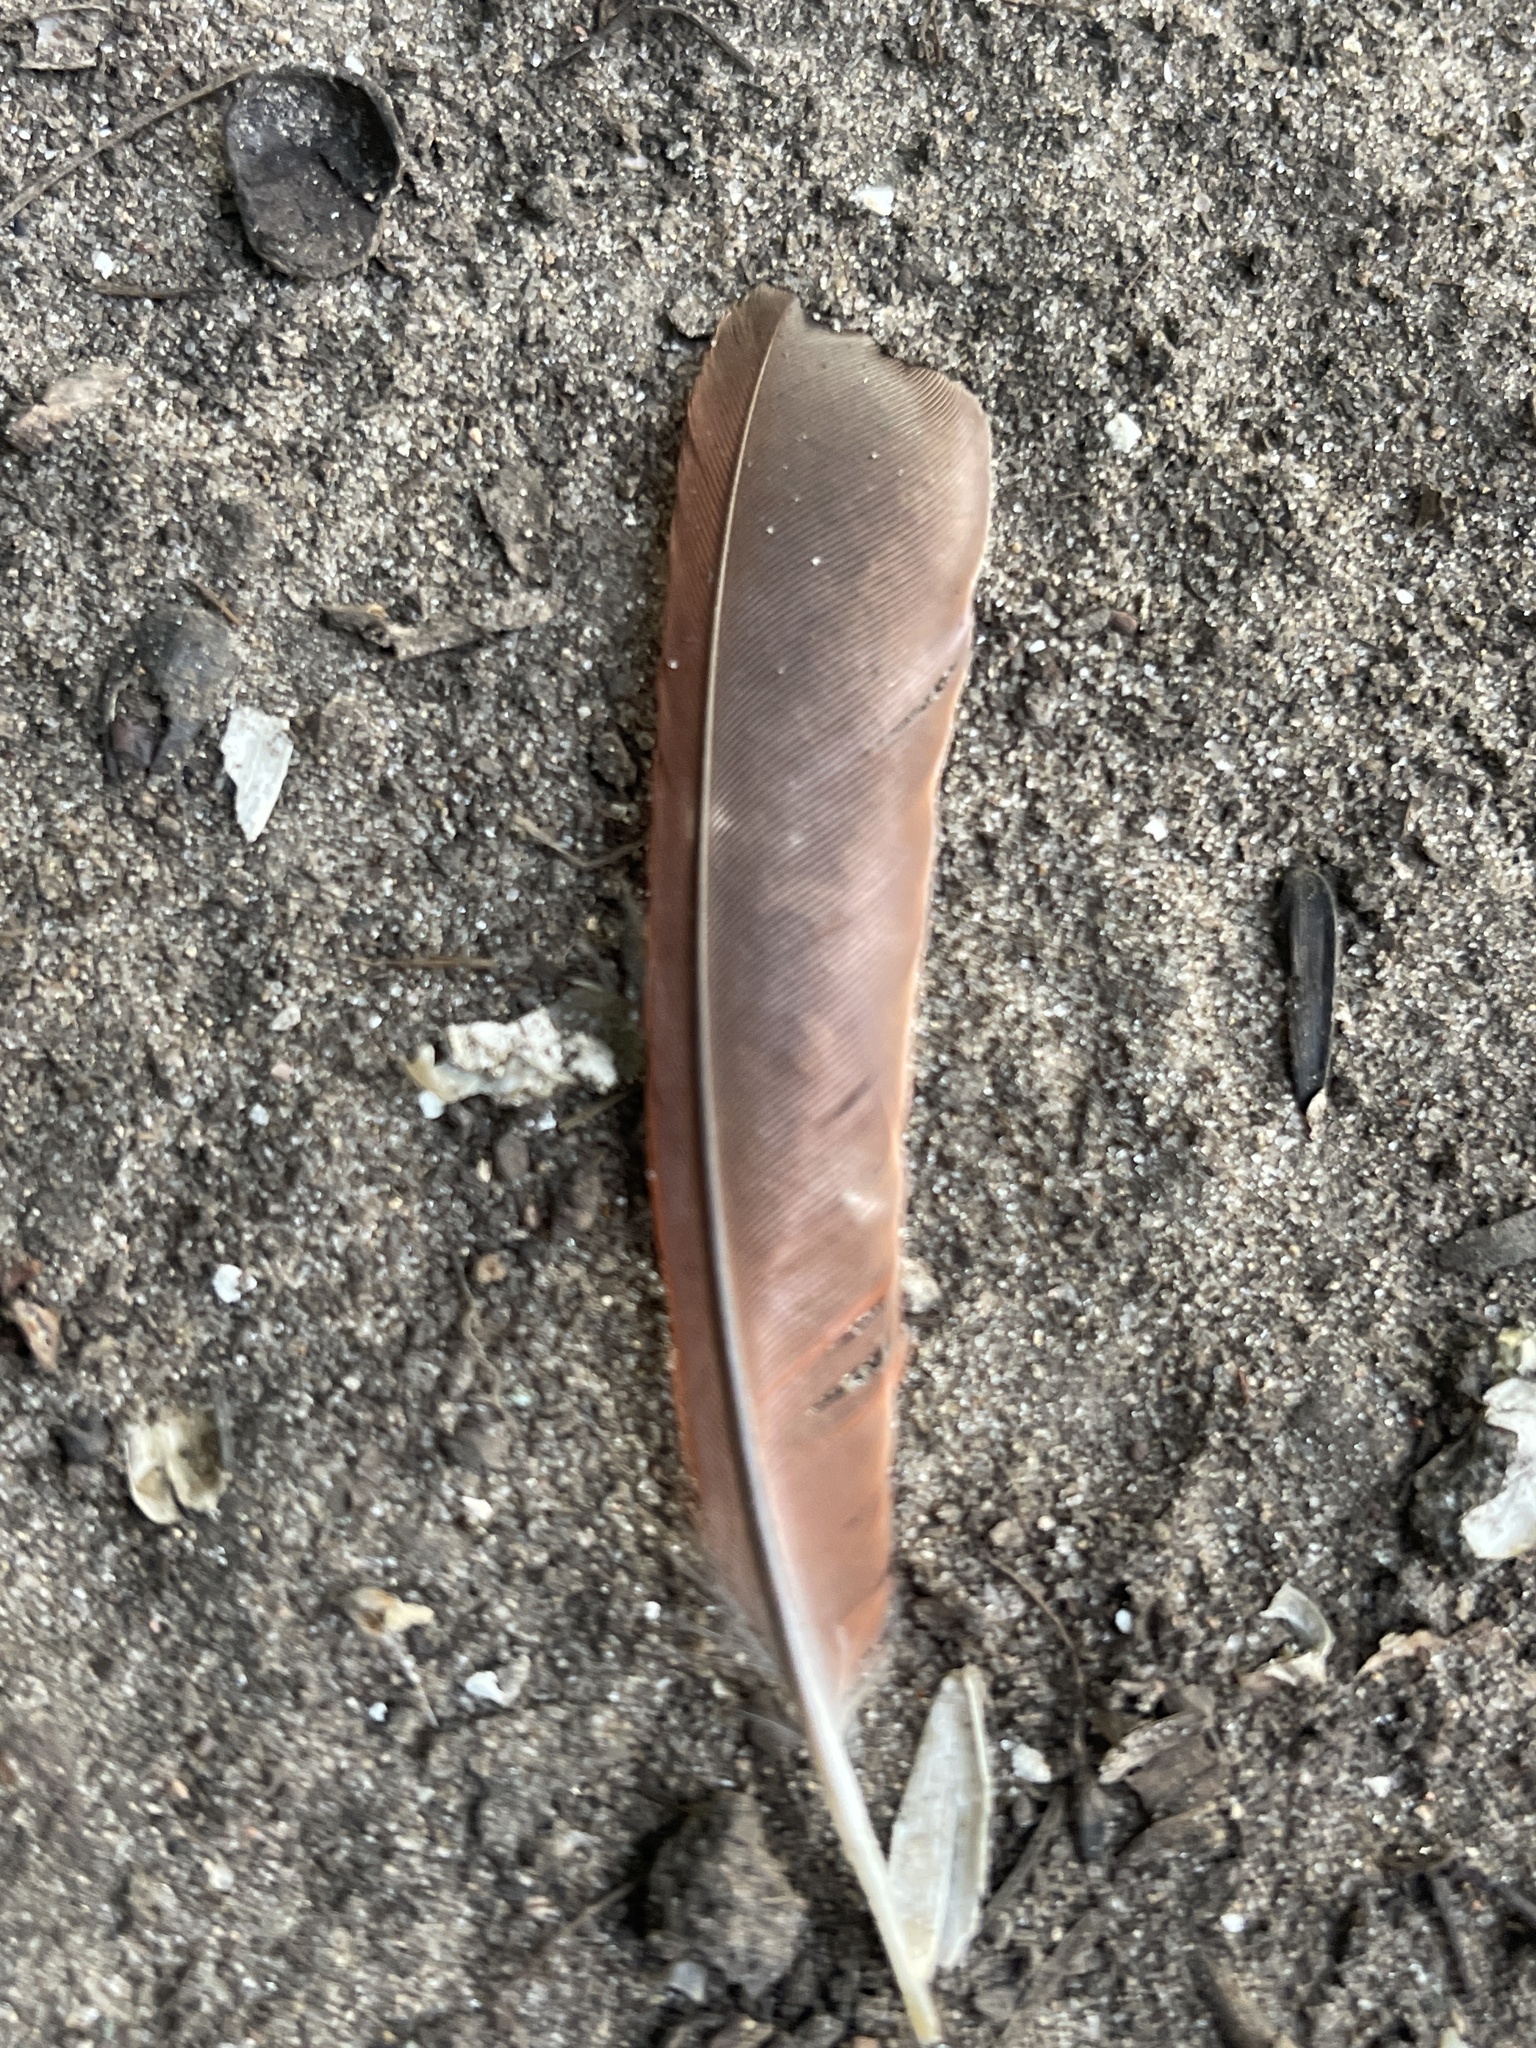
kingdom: Animalia
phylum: Chordata
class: Aves
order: Passeriformes
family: Cardinalidae
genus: Cardinalis
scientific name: Cardinalis cardinalis
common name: Northern cardinal
